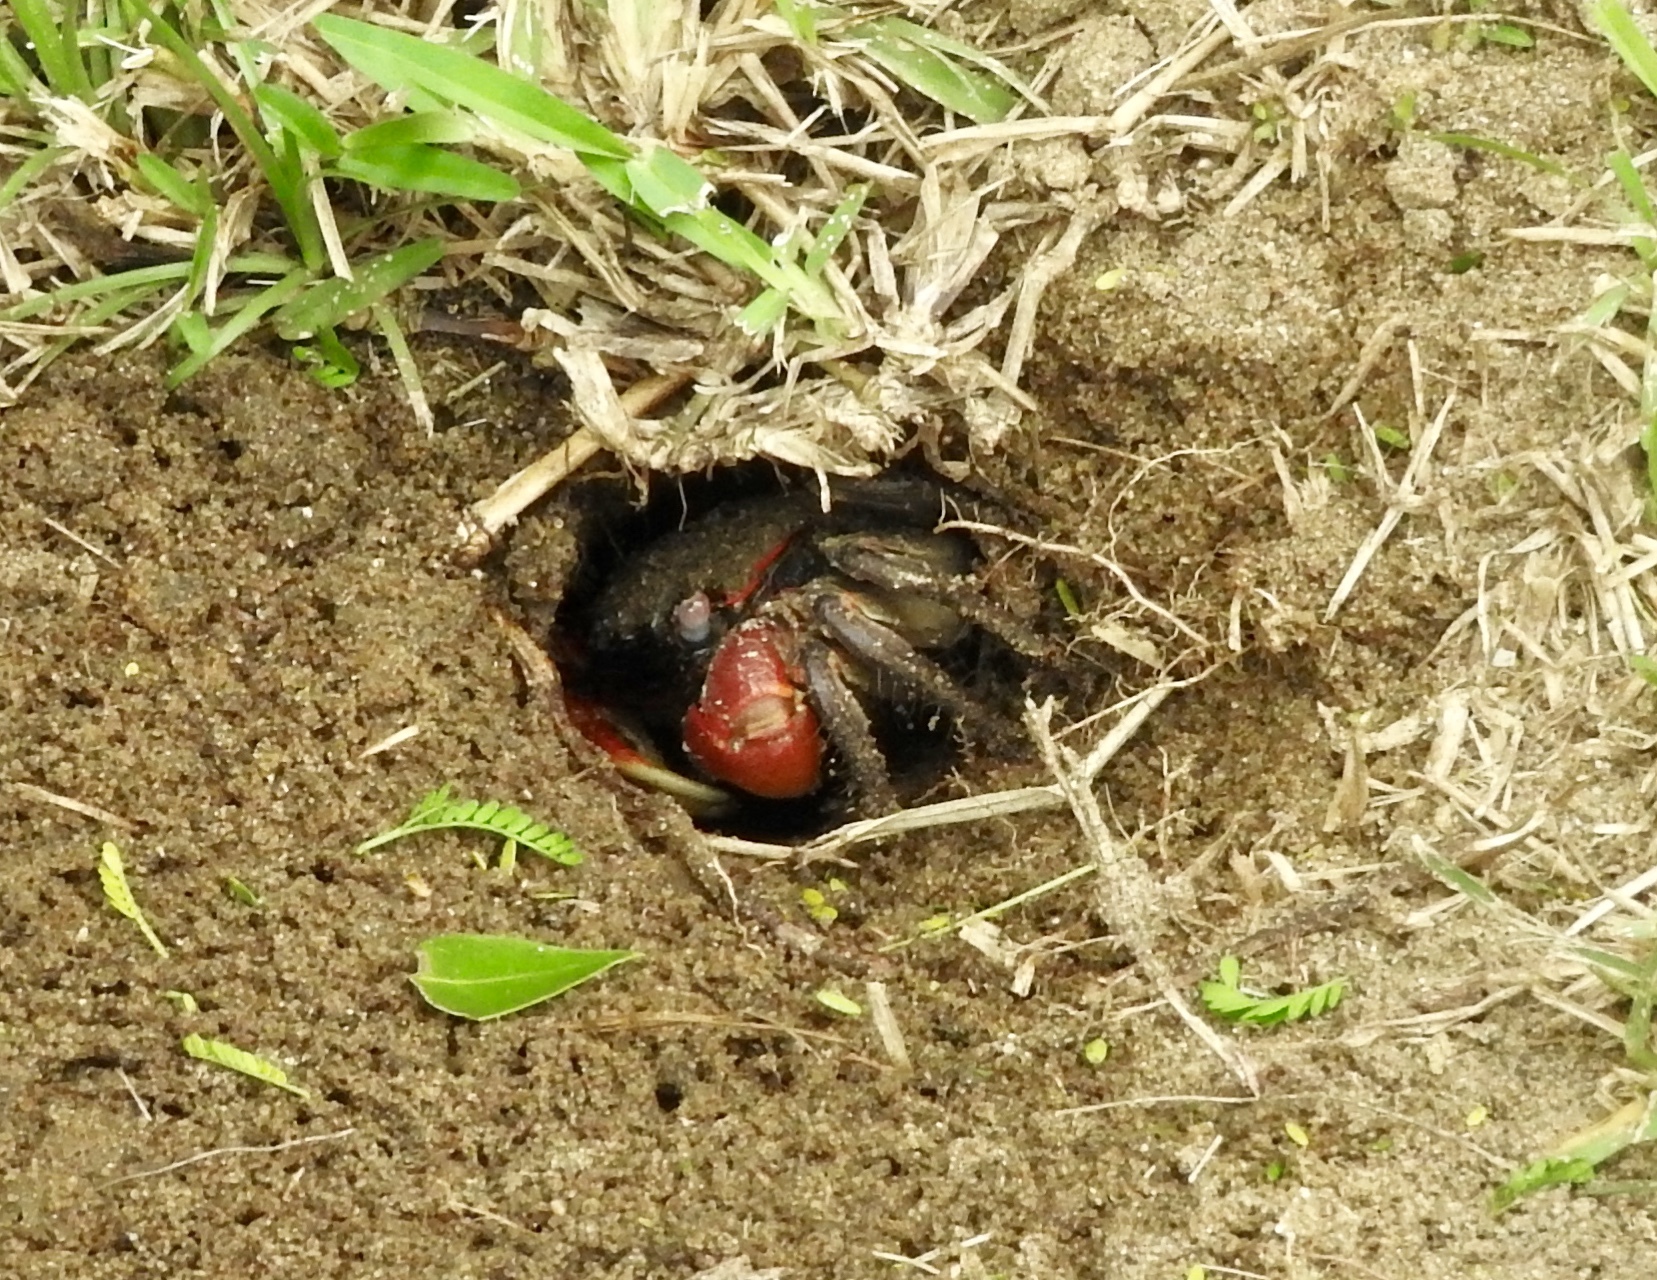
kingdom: Animalia
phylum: Arthropoda
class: Malacostraca
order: Decapoda
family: Sesarmidae
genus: Neosarmatium
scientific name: Neosarmatium africanum
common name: East african red mangrove crab
